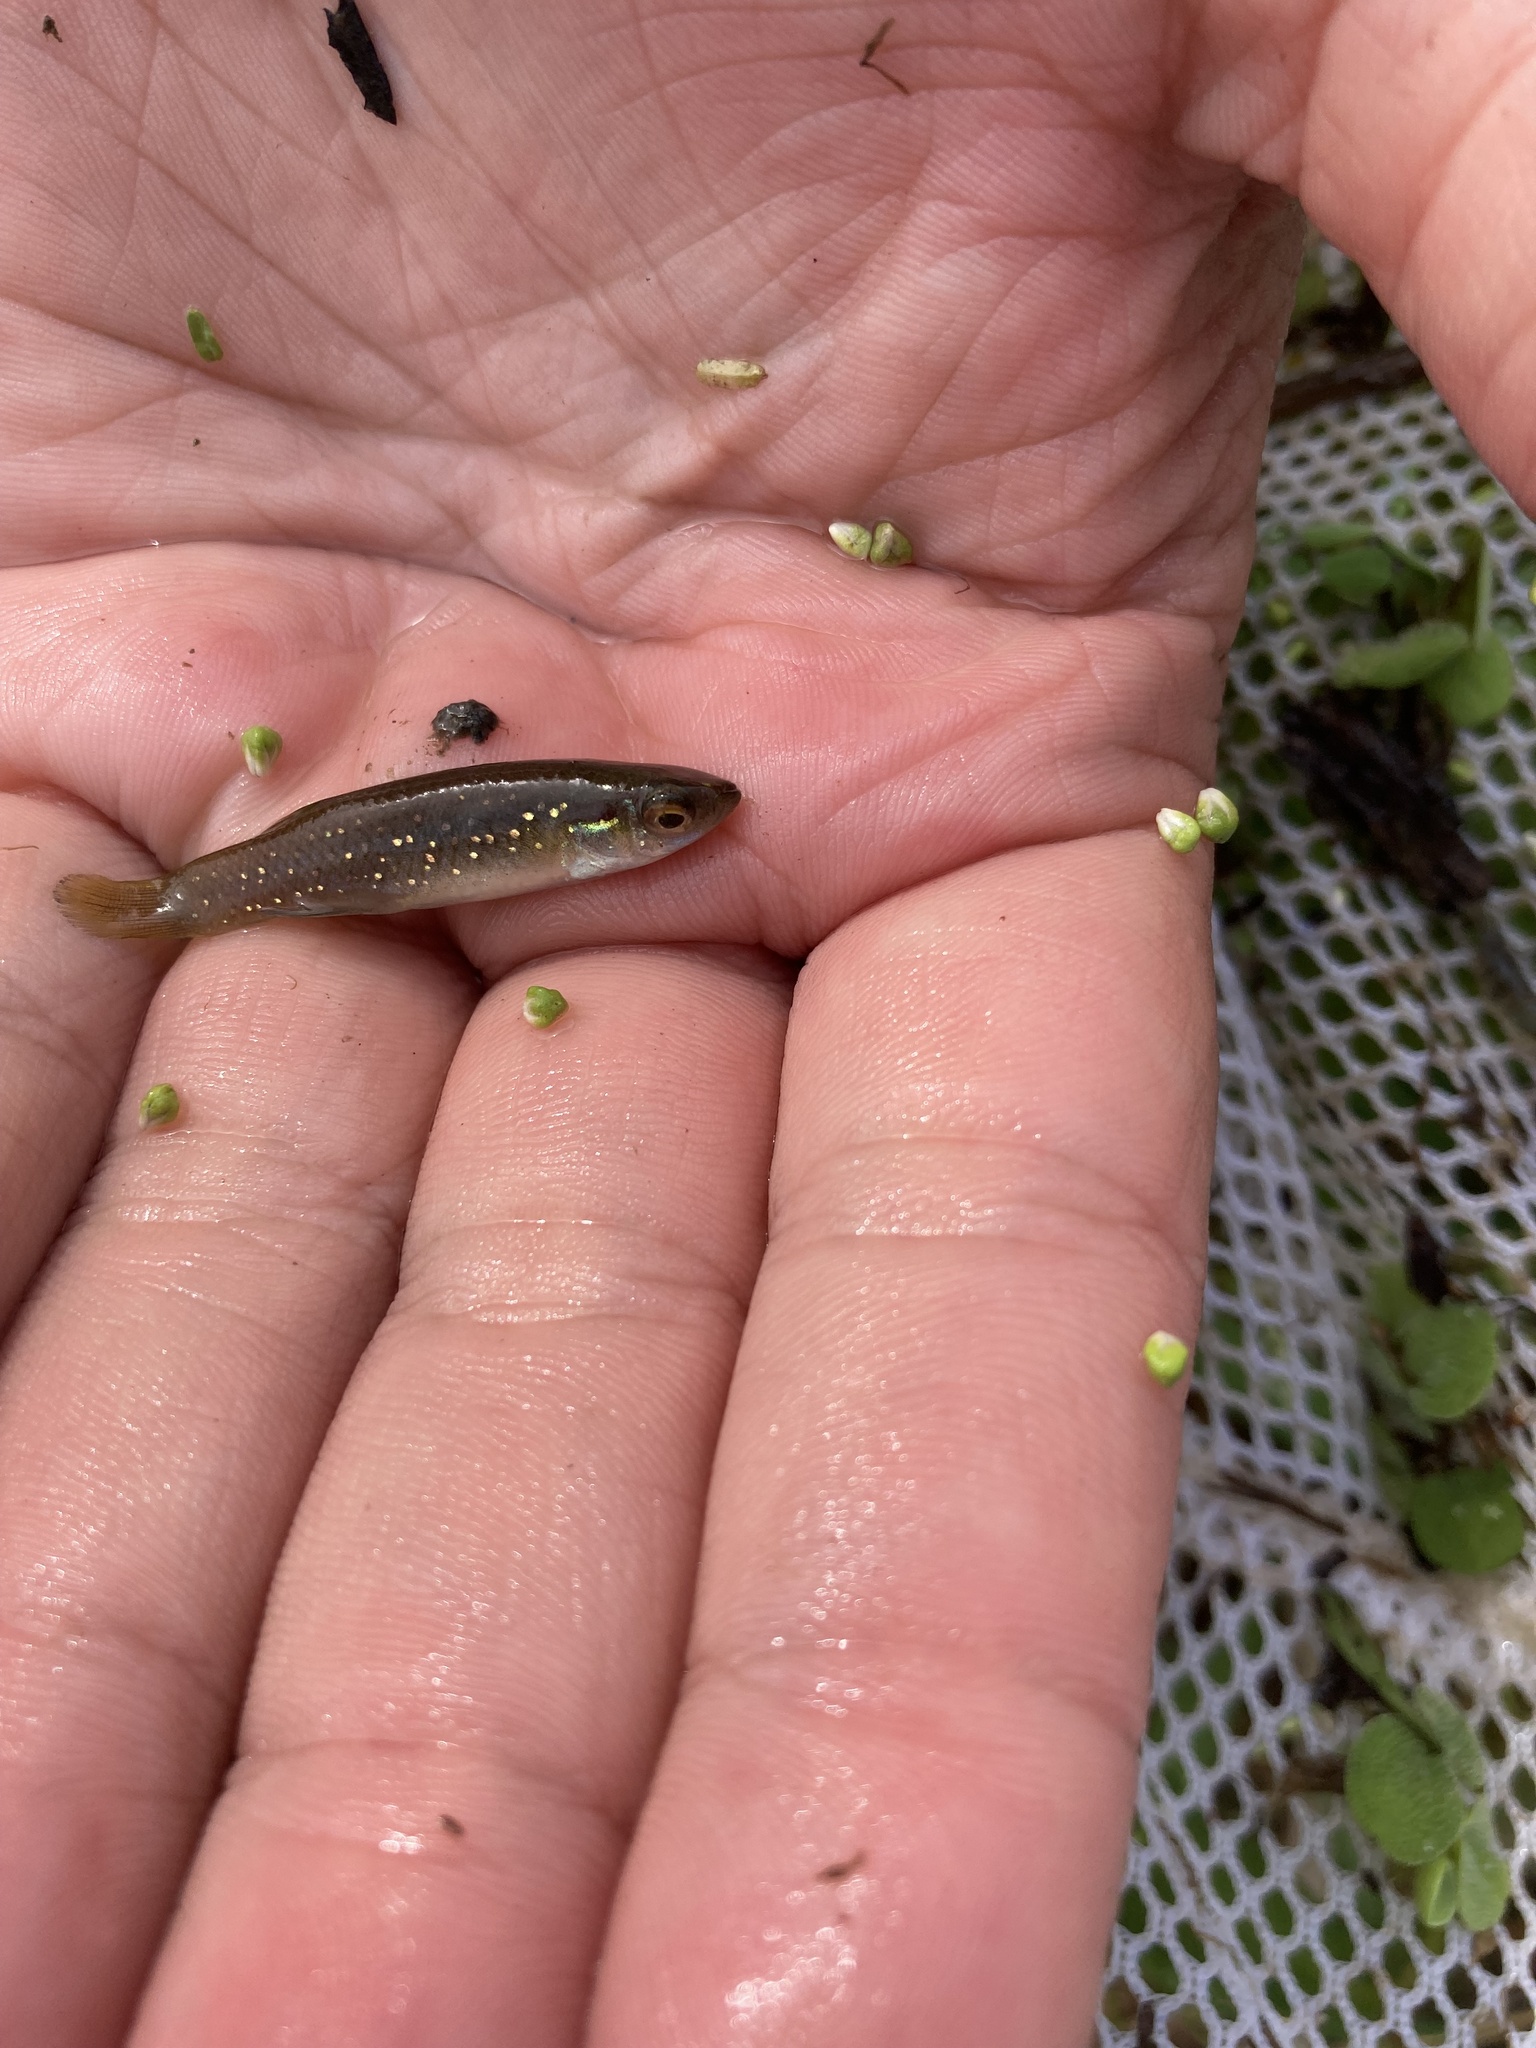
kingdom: Animalia
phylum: Chordata
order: Cyprinodontiformes
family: Fundulidae
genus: Fundulus
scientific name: Fundulus chrysotus
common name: Golden topminnow
